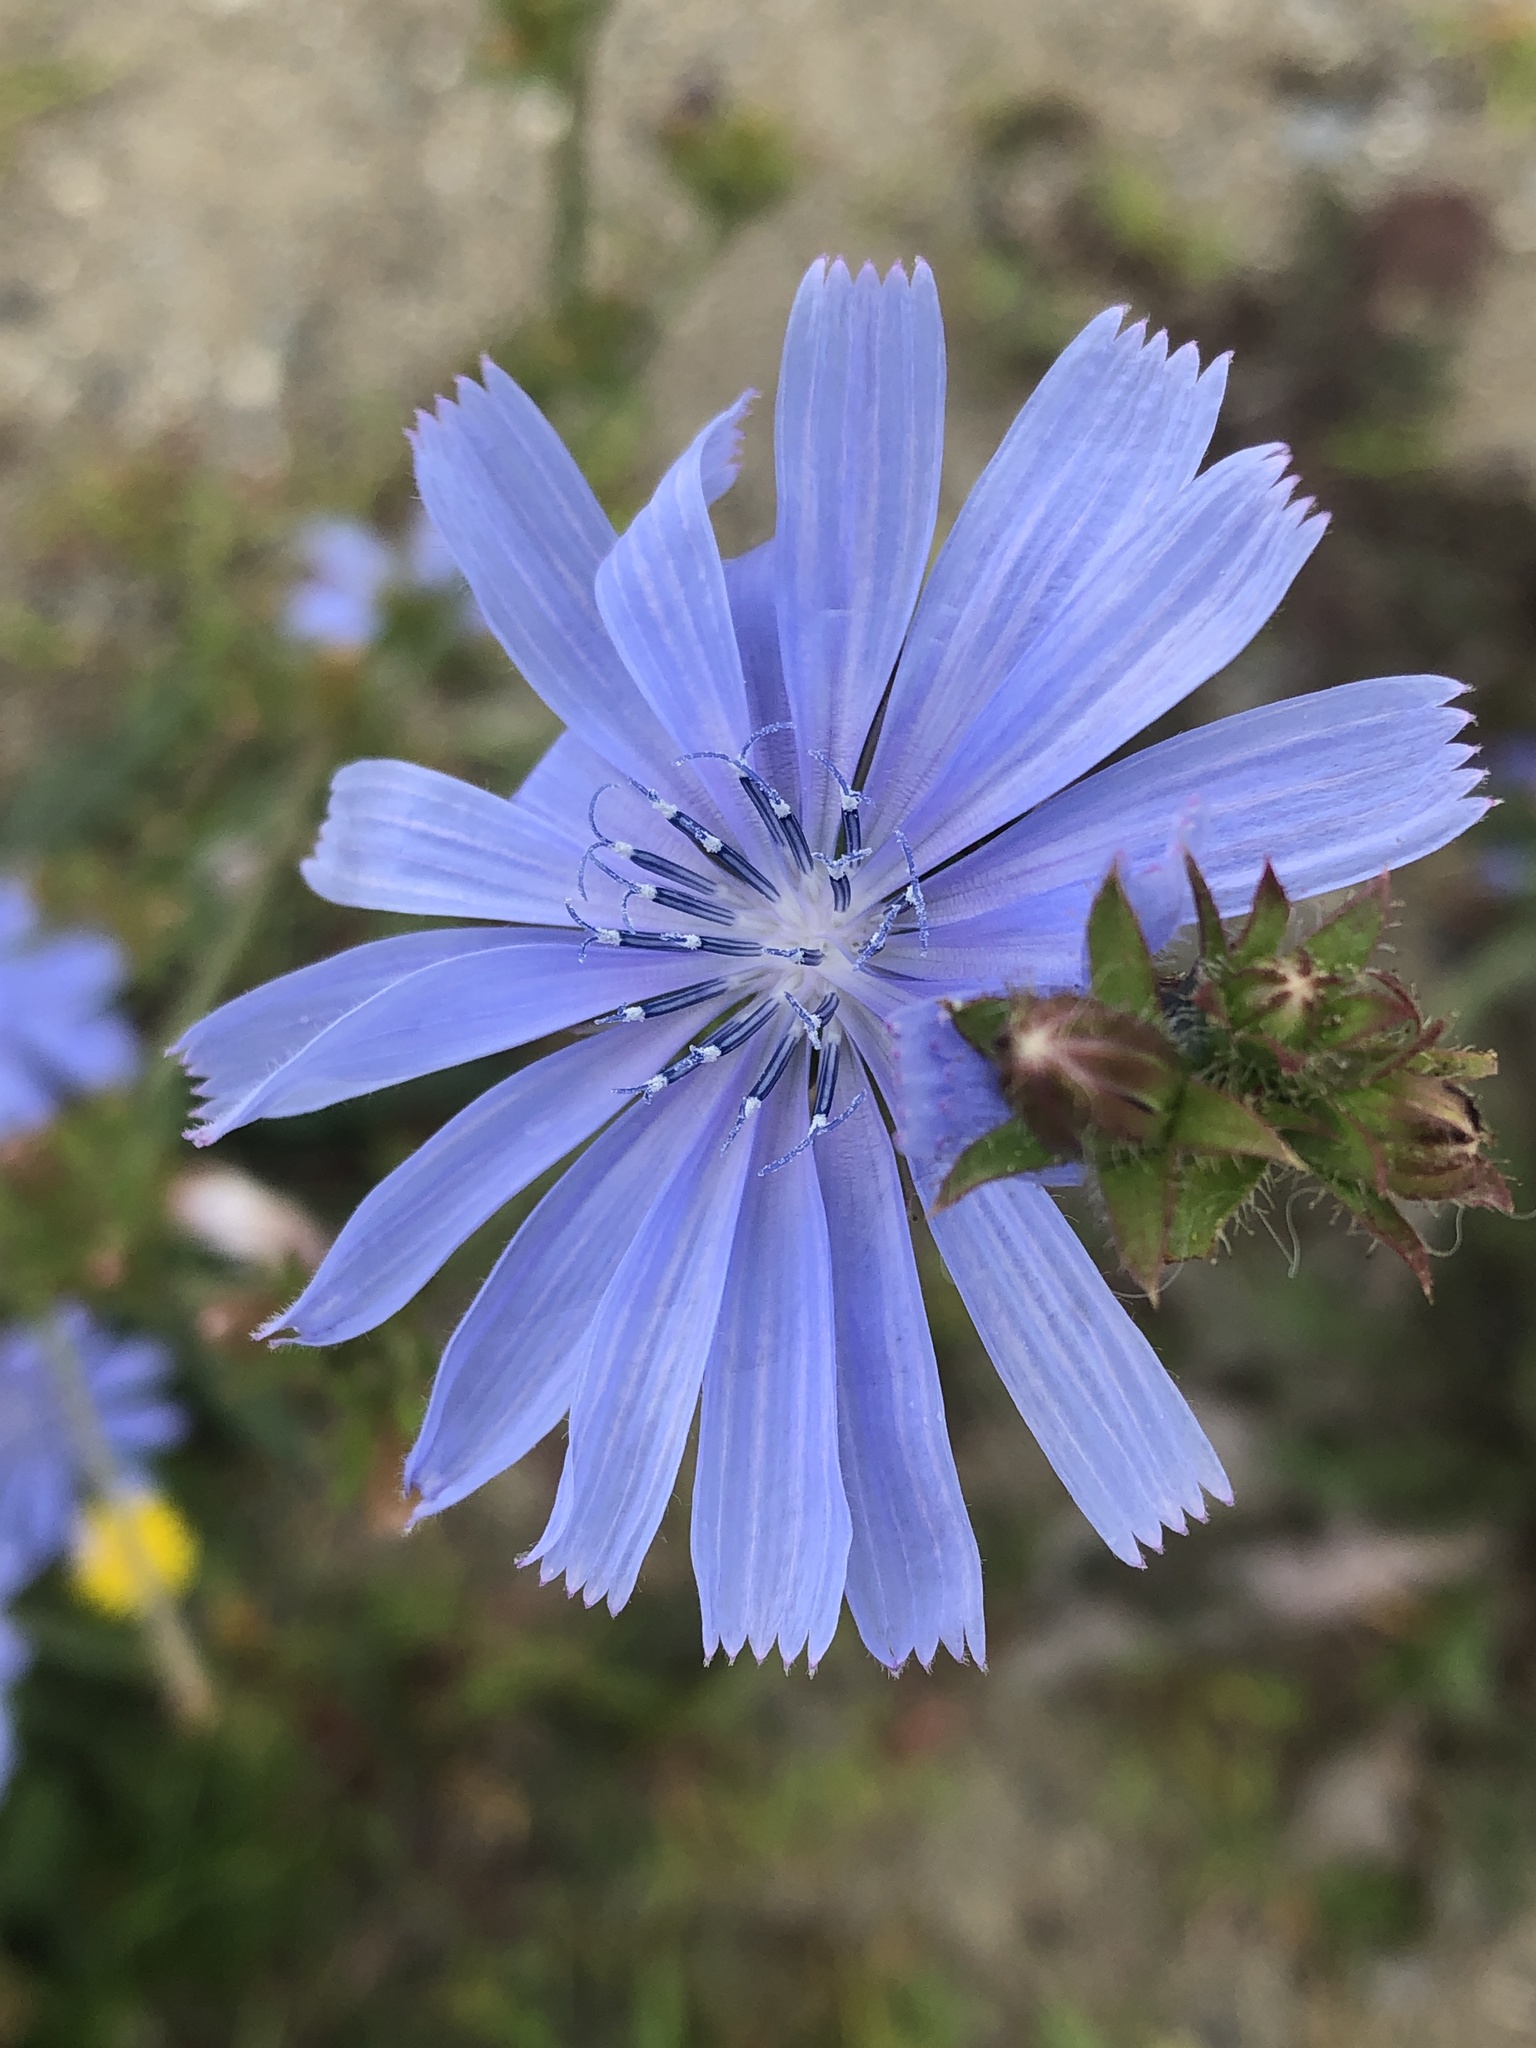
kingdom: Plantae
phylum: Tracheophyta
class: Magnoliopsida
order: Asterales
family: Asteraceae
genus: Cichorium
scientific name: Cichorium intybus
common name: Chicory
